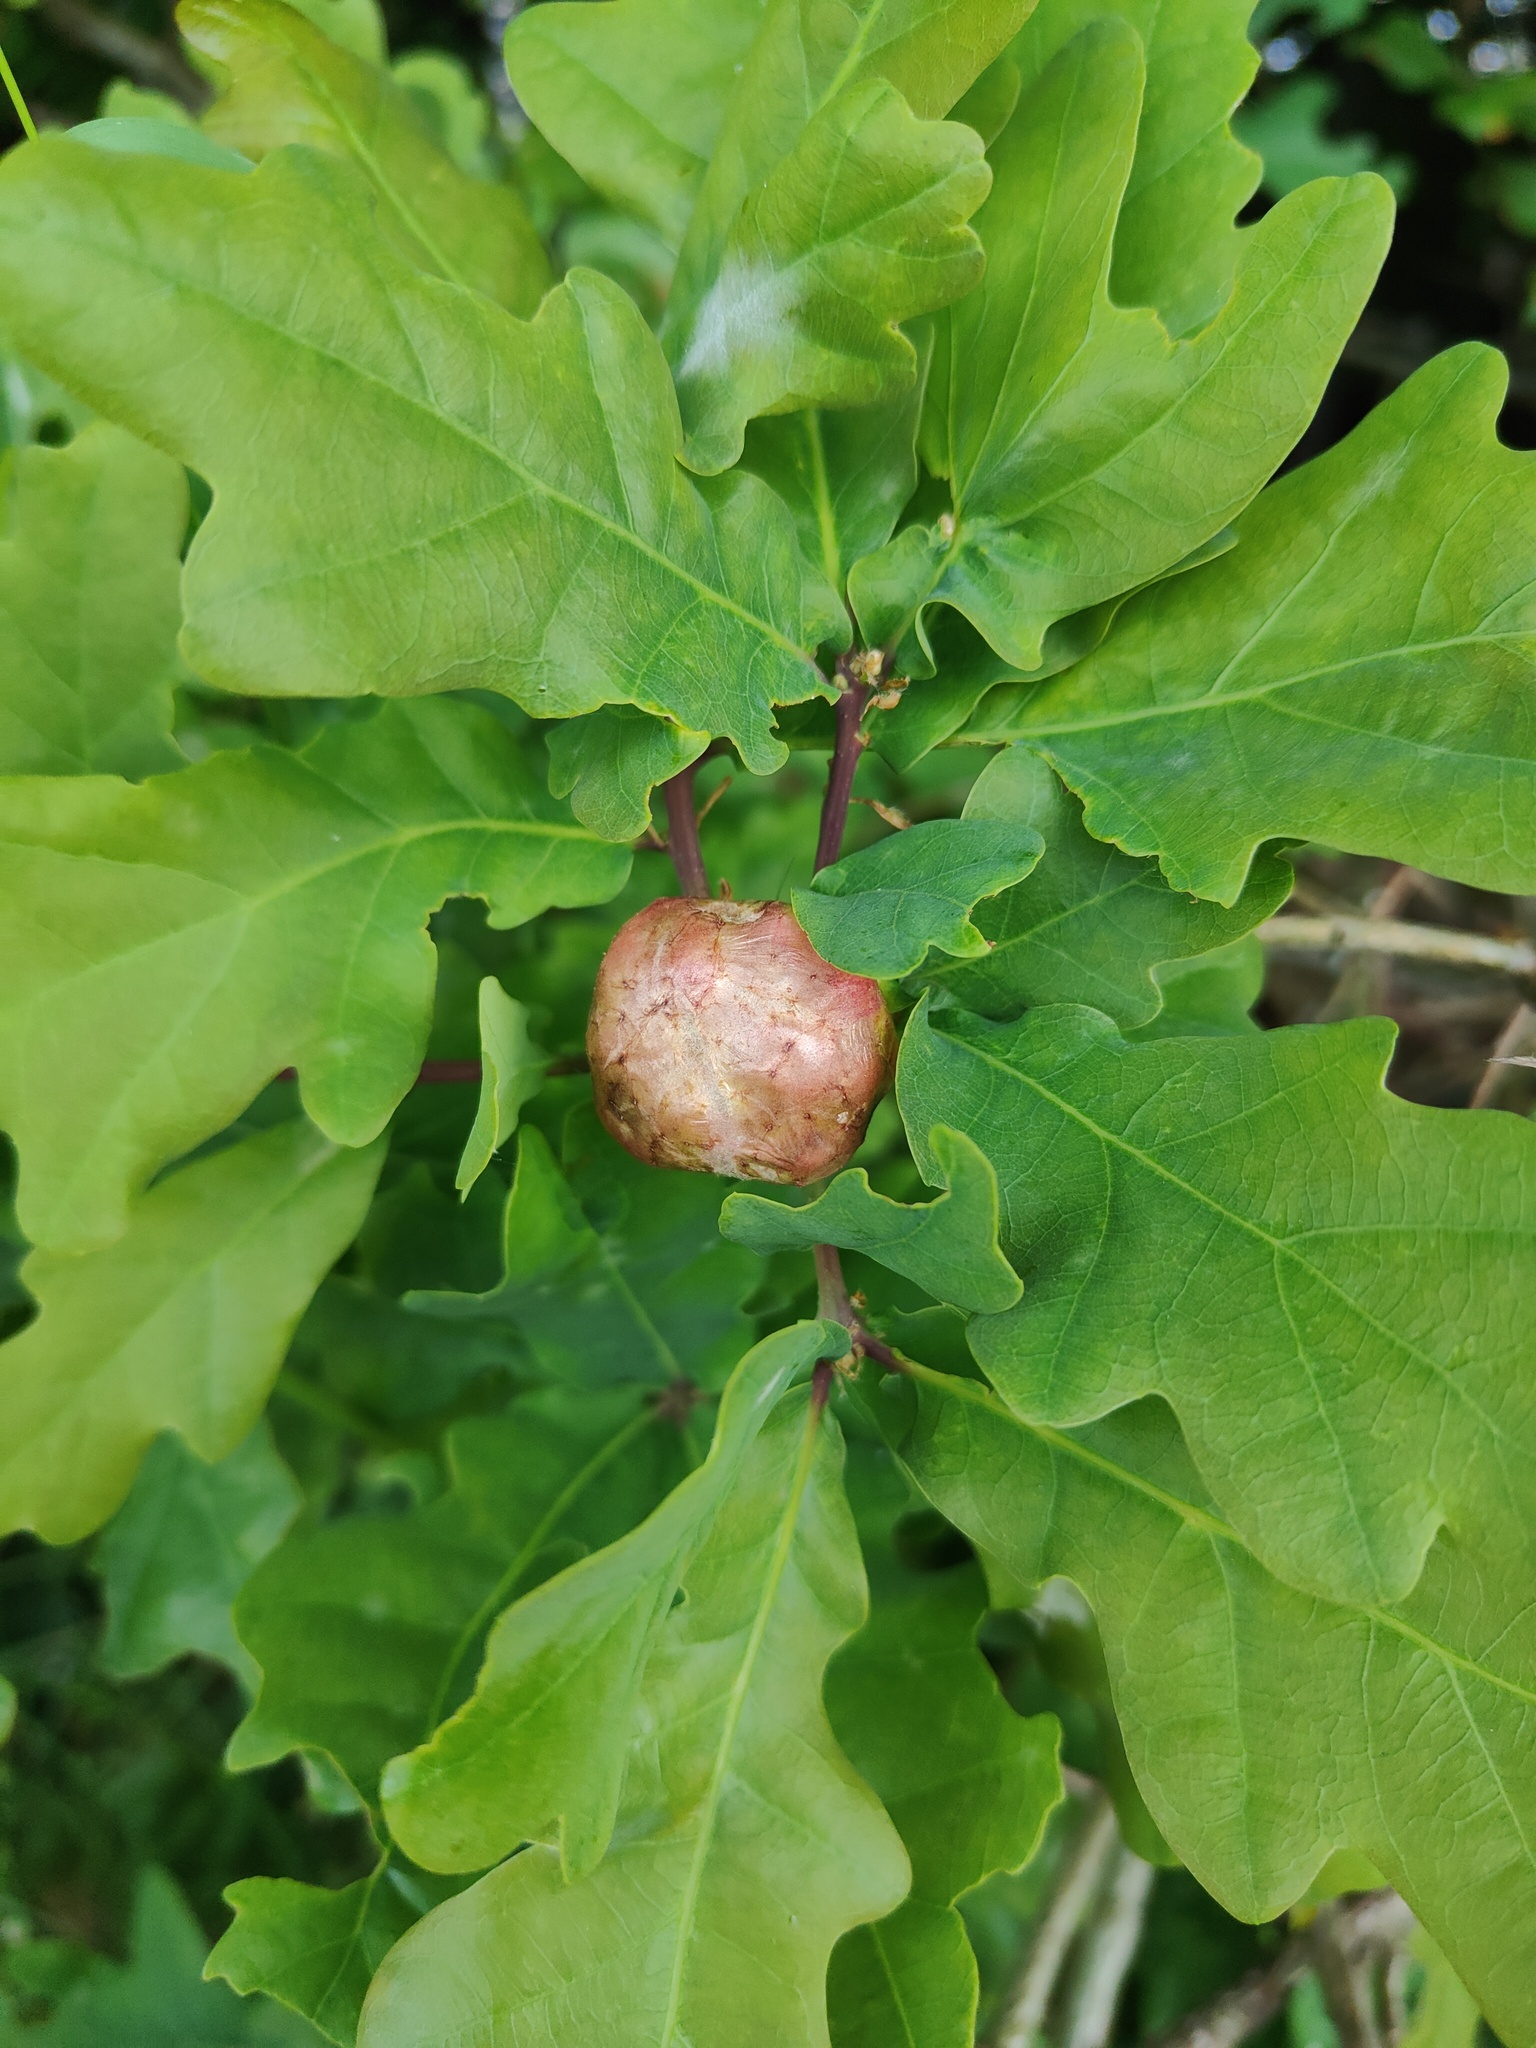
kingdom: Animalia
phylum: Arthropoda
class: Insecta
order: Hymenoptera
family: Cynipidae
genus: Biorhiza
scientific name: Biorhiza pallida
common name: Oak apple
